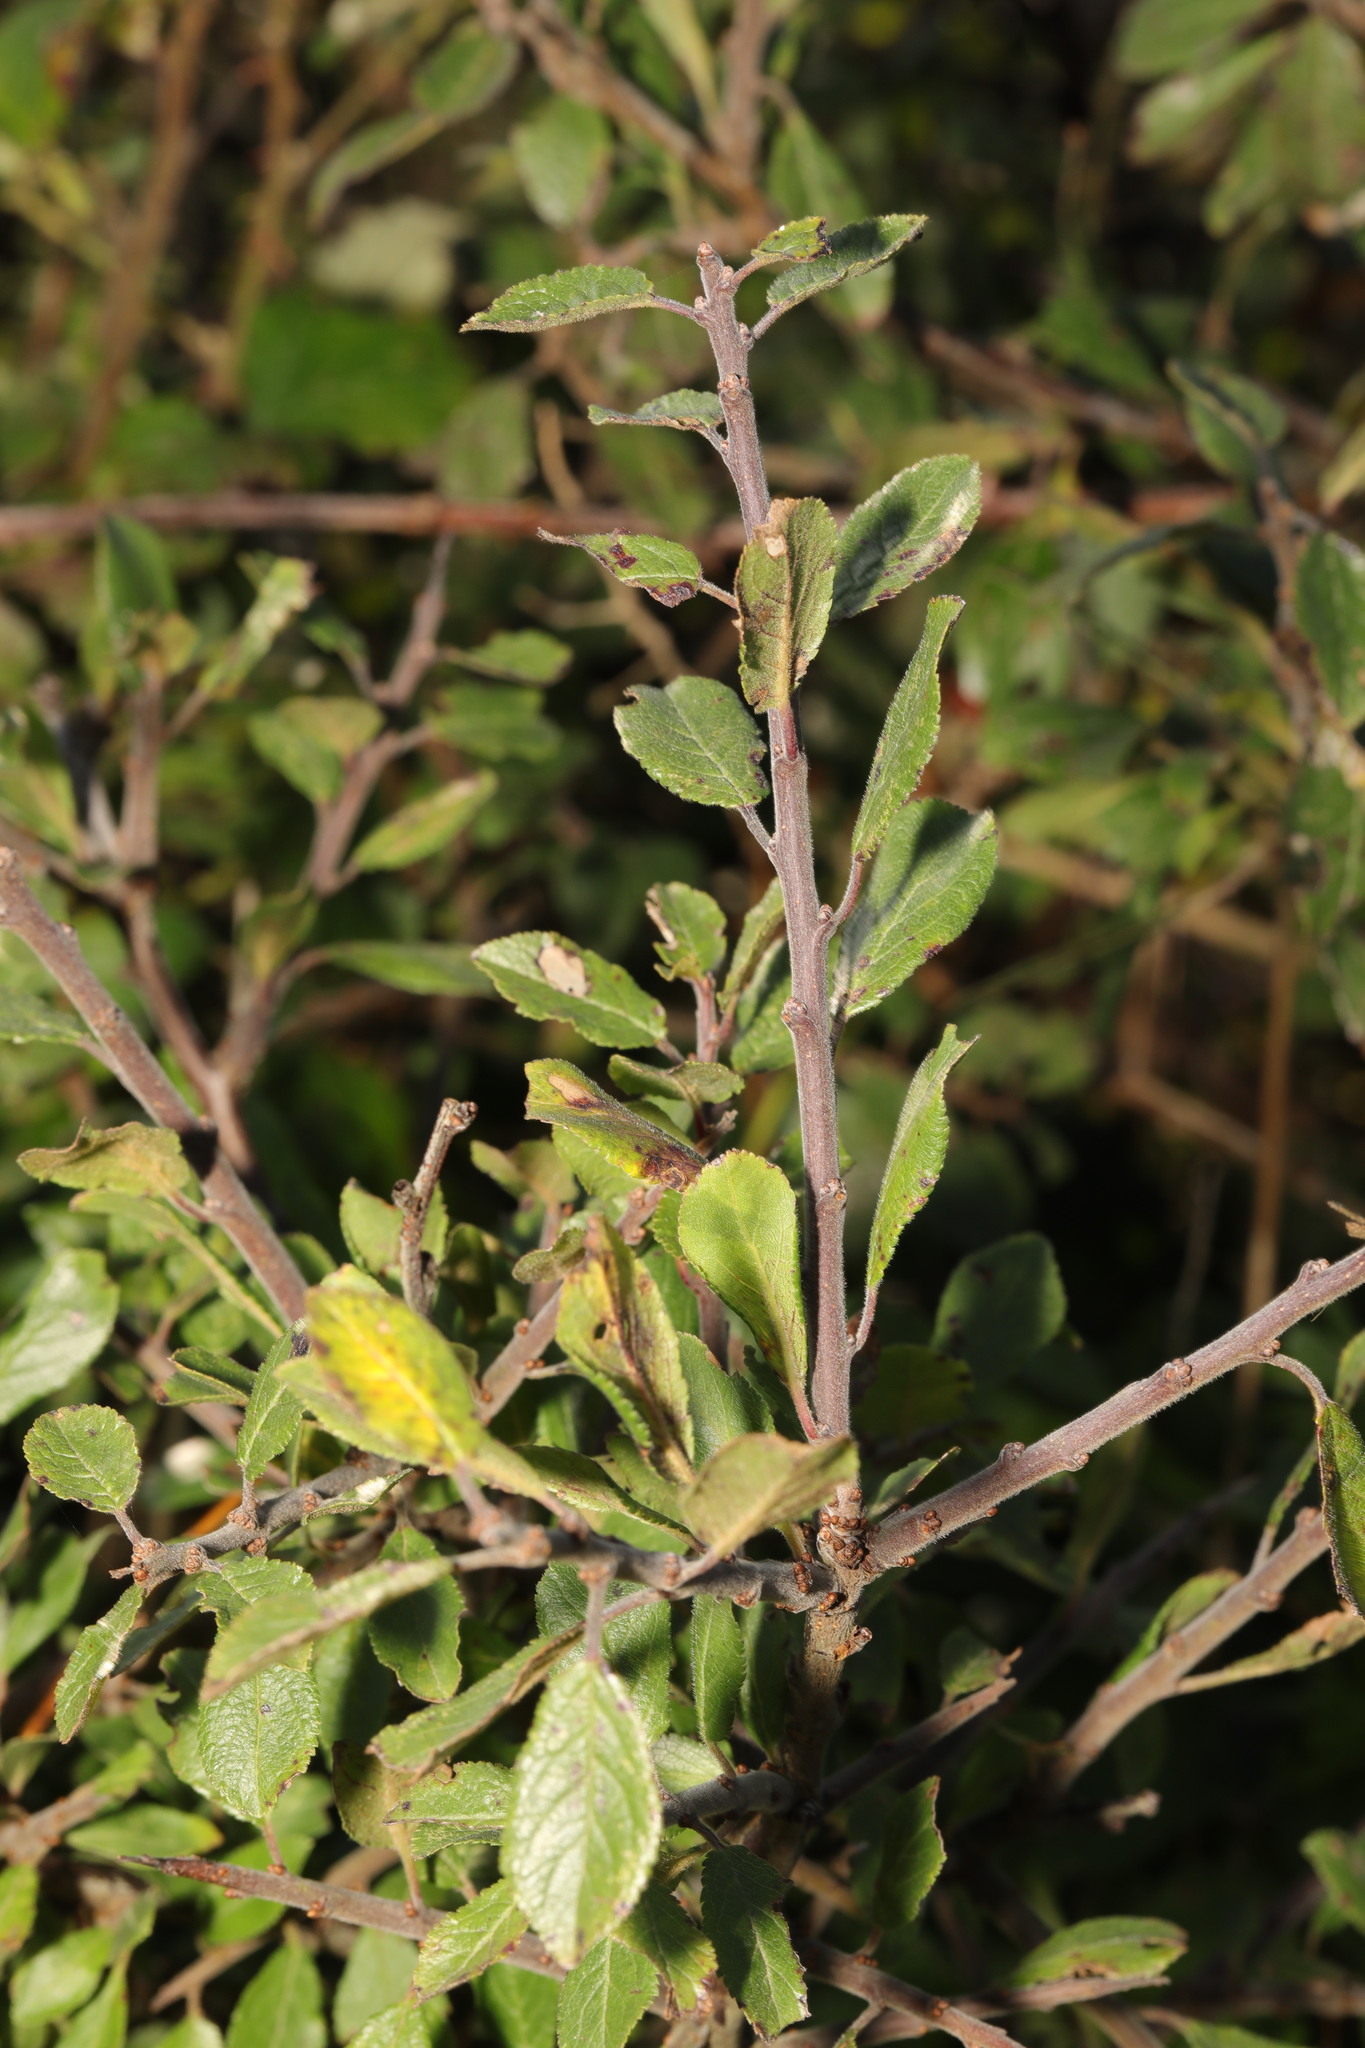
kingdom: Plantae
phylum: Tracheophyta
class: Magnoliopsida
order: Rosales
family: Rosaceae
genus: Prunus
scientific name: Prunus spinosa
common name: Blackthorn
